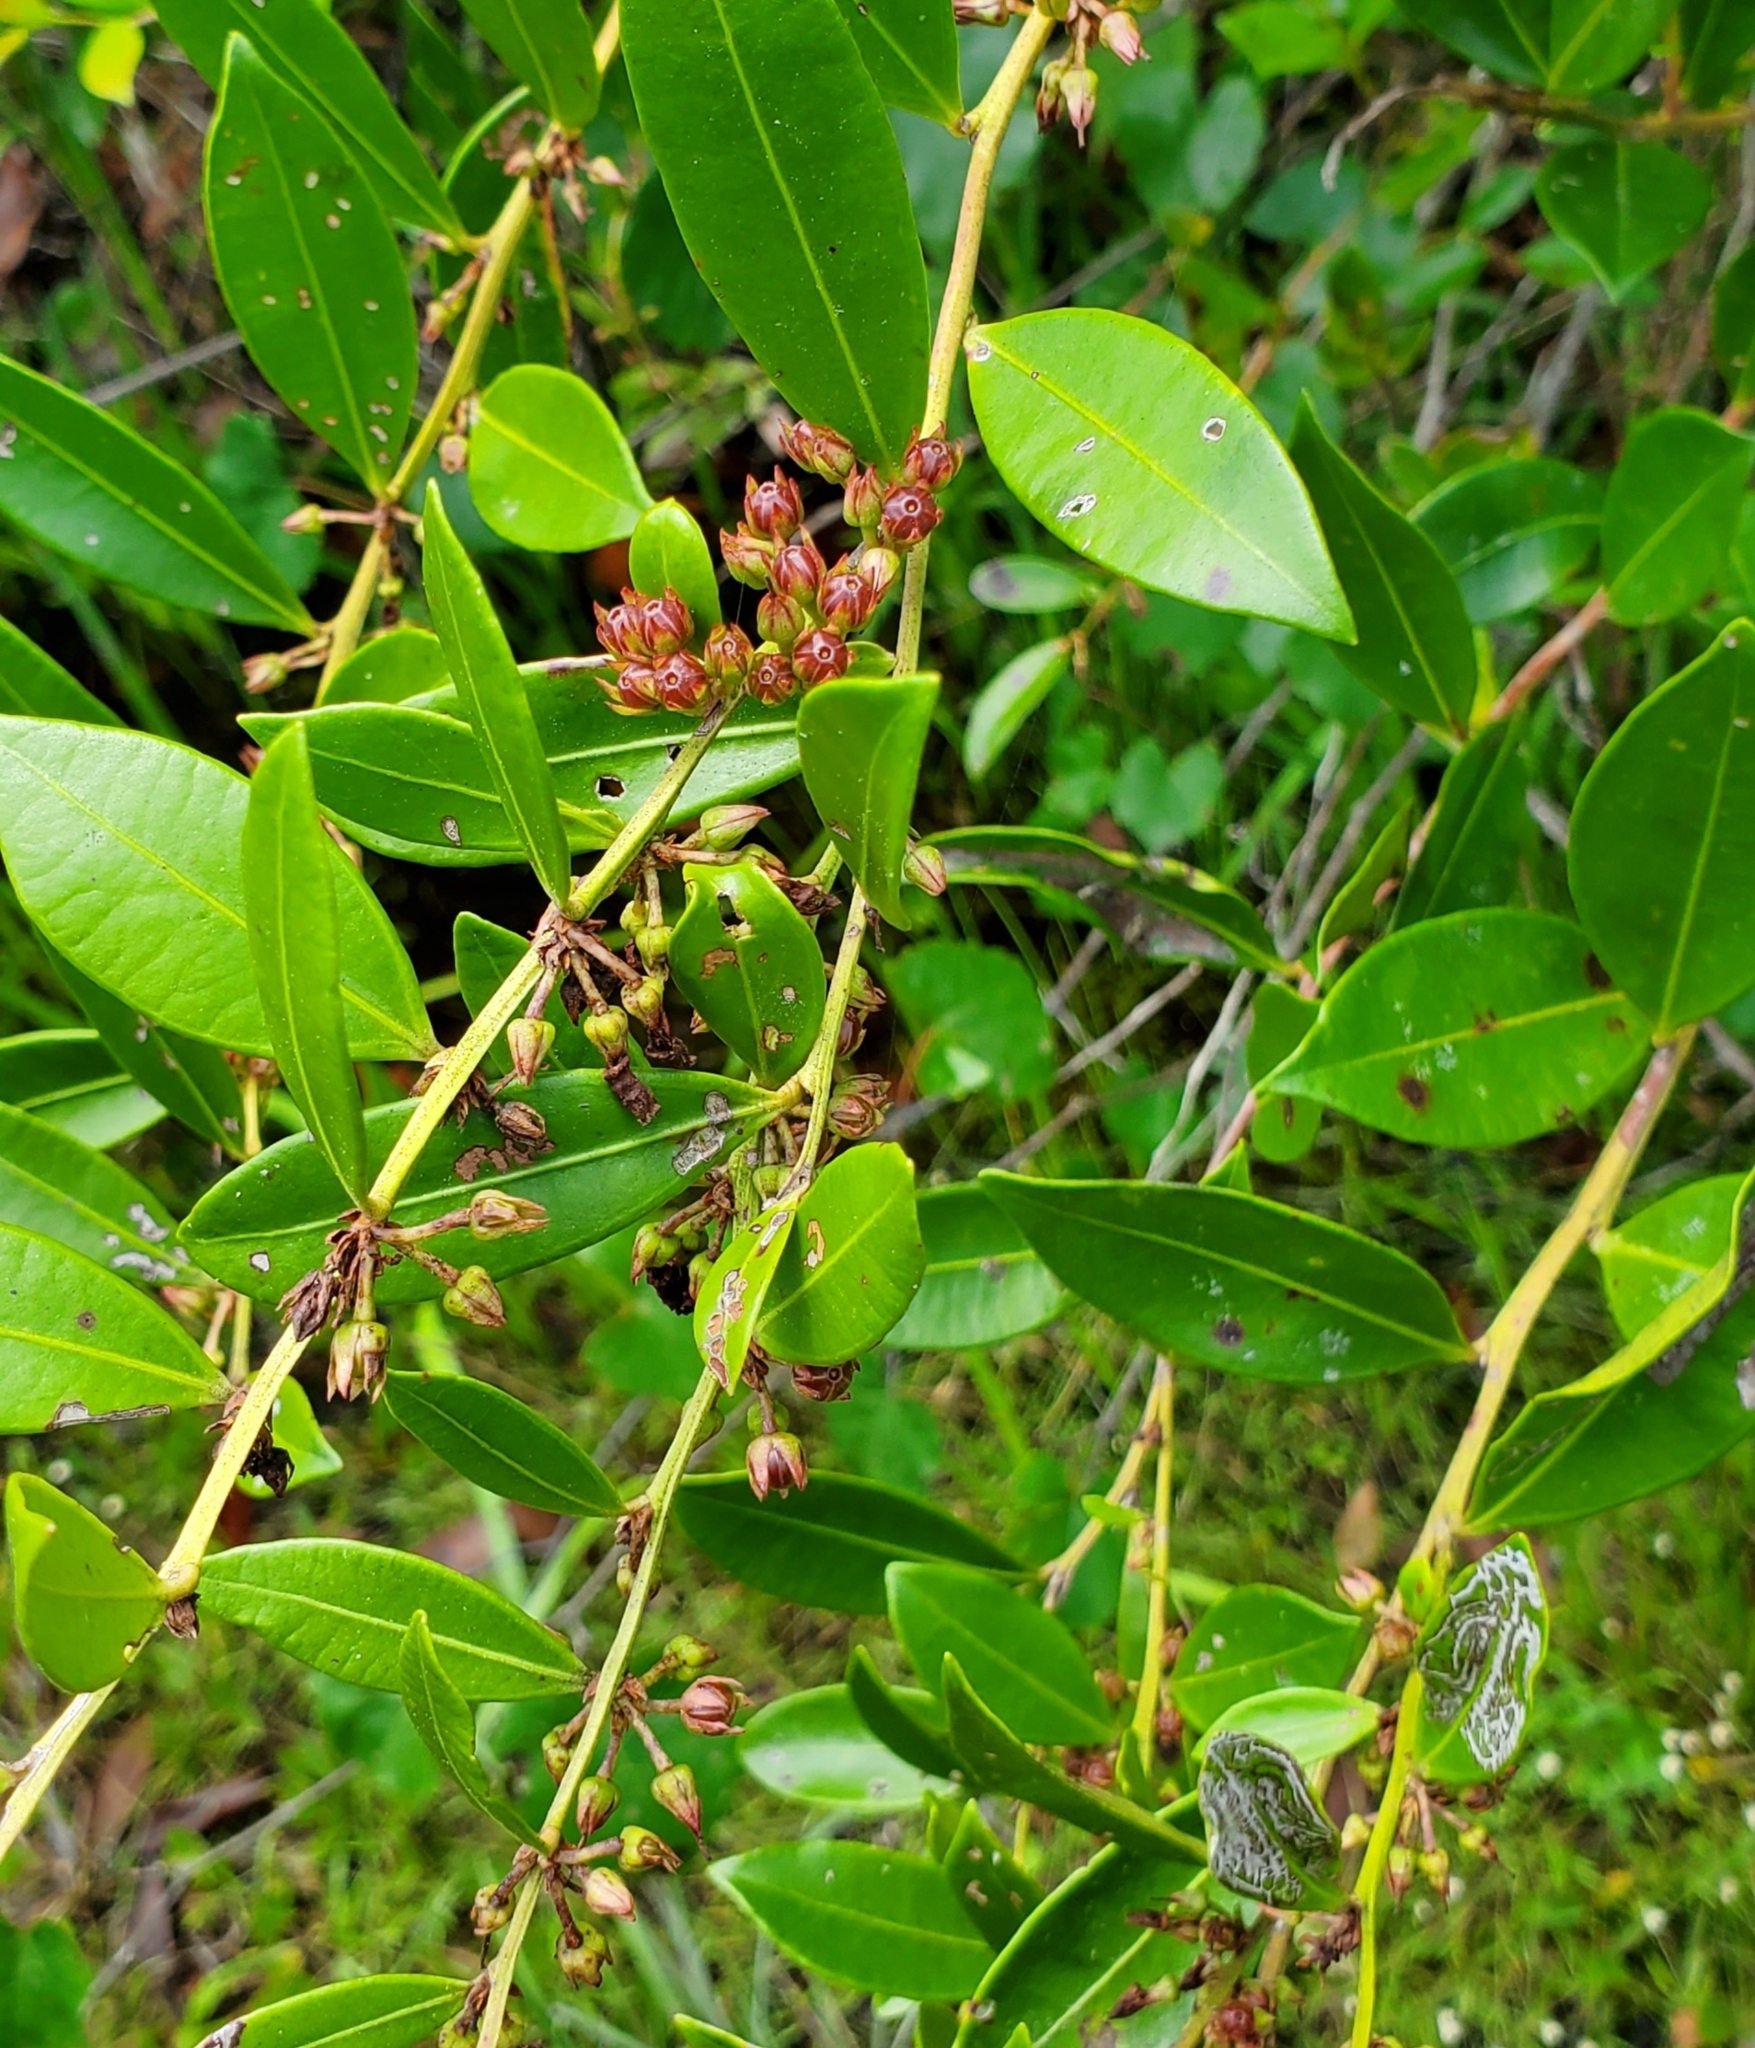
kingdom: Plantae
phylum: Tracheophyta
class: Magnoliopsida
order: Ericales
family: Ericaceae
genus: Lyonia
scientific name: Lyonia lucida
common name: Fetterbush
